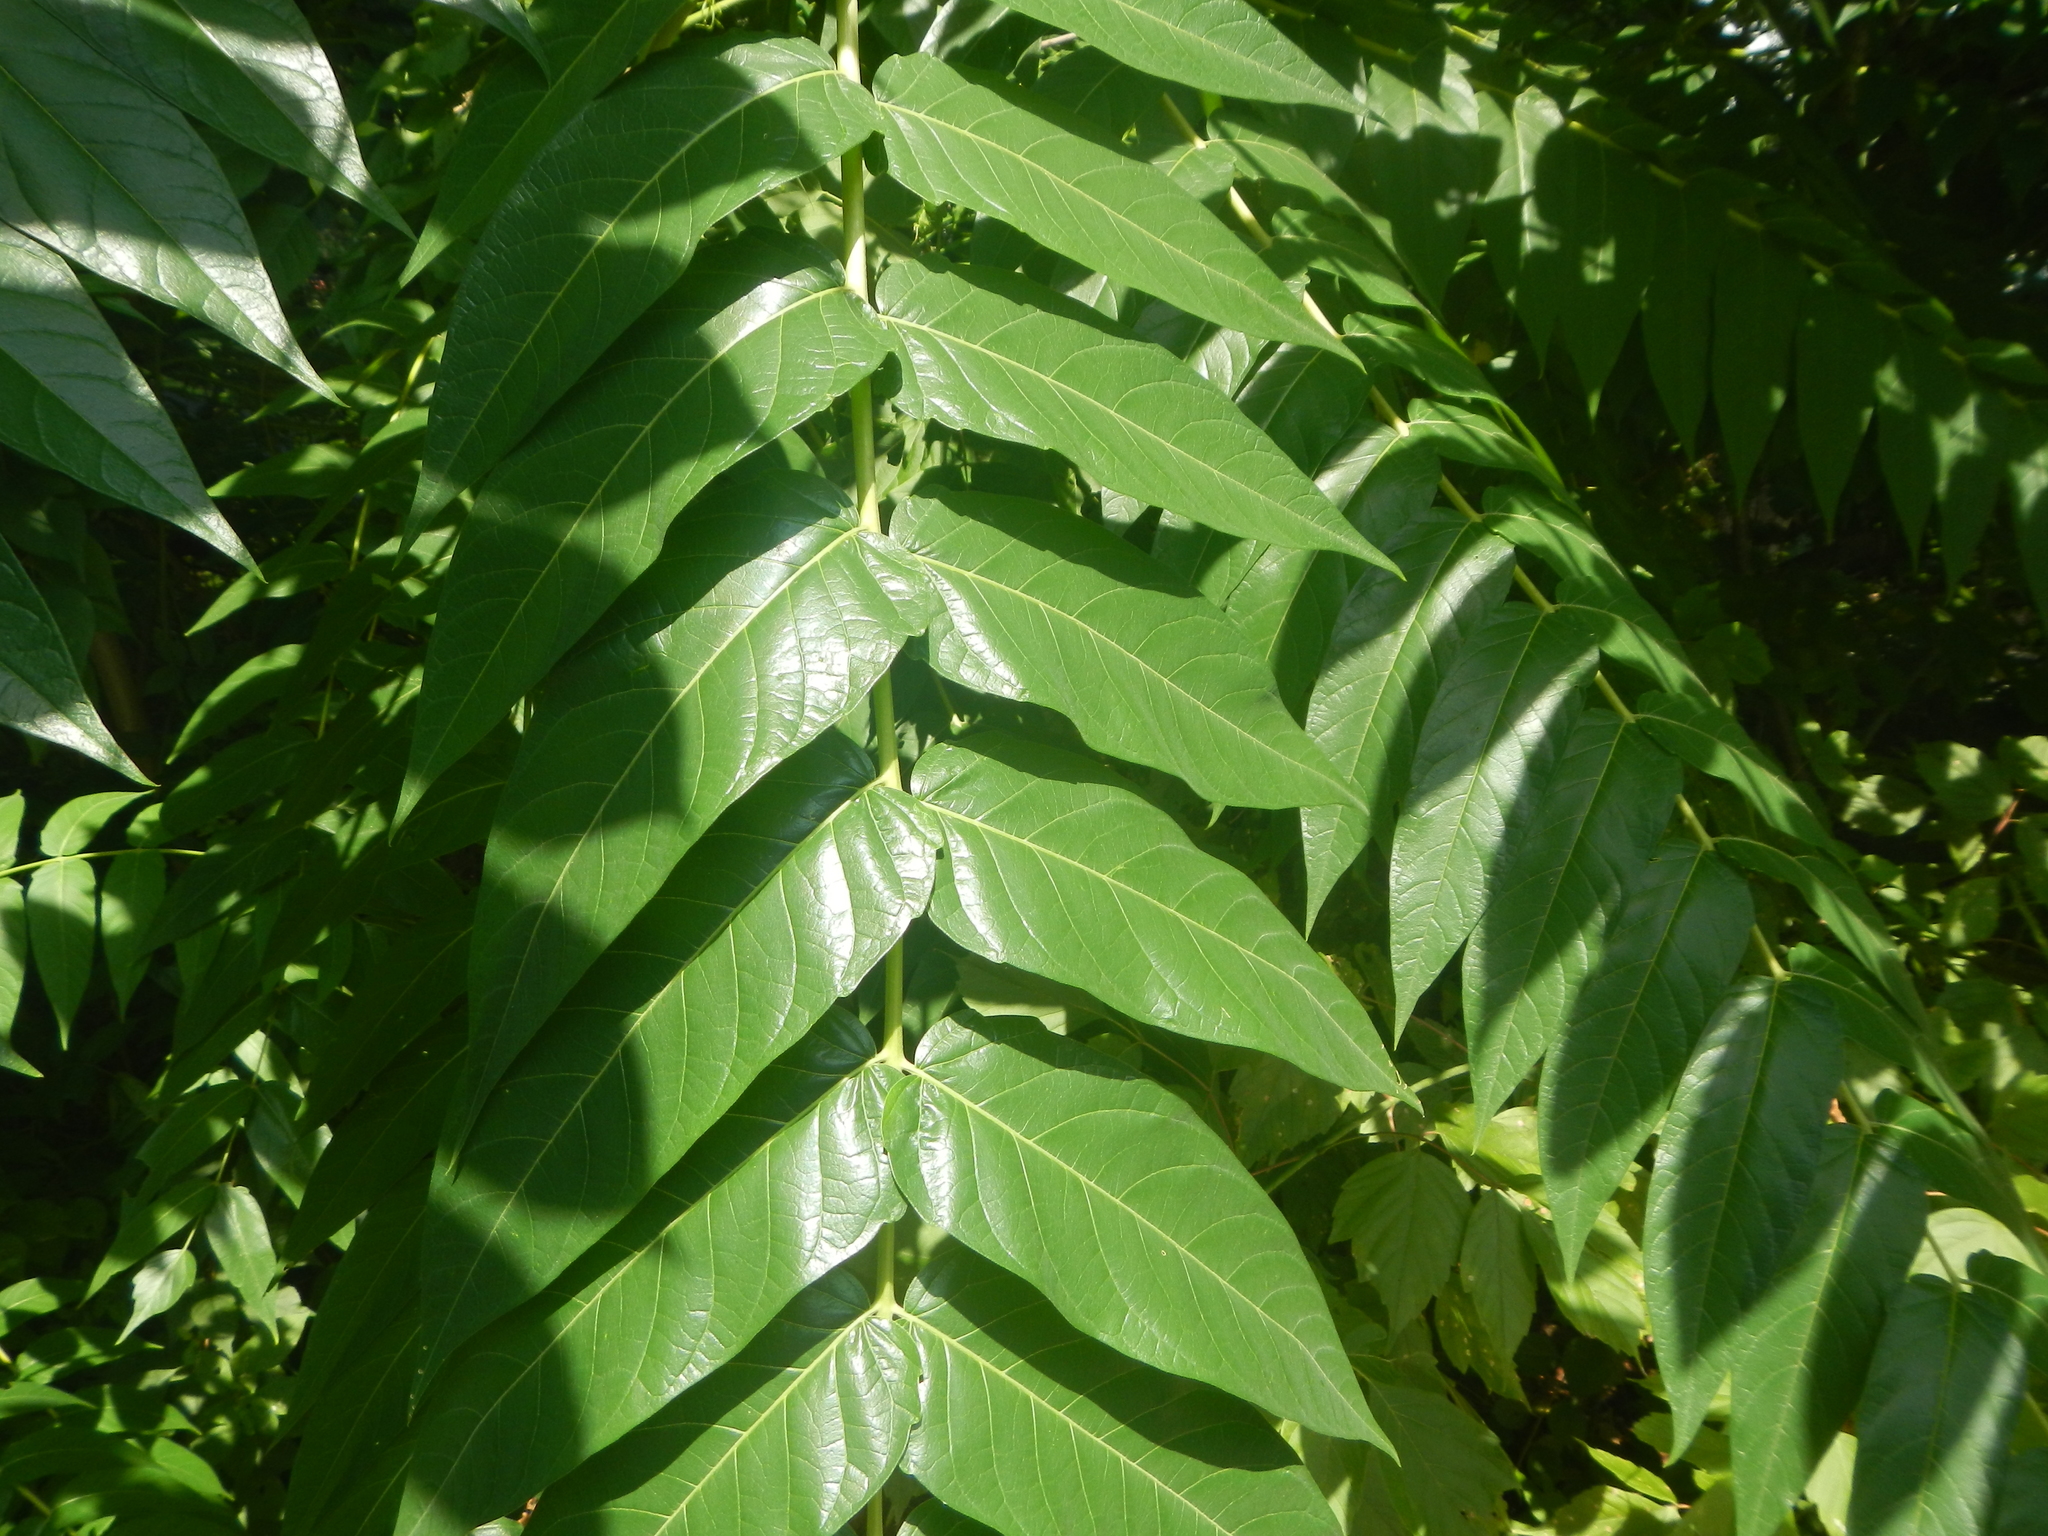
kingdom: Plantae
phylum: Tracheophyta
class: Magnoliopsida
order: Sapindales
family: Simaroubaceae
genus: Ailanthus
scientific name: Ailanthus altissima
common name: Tree-of-heaven
